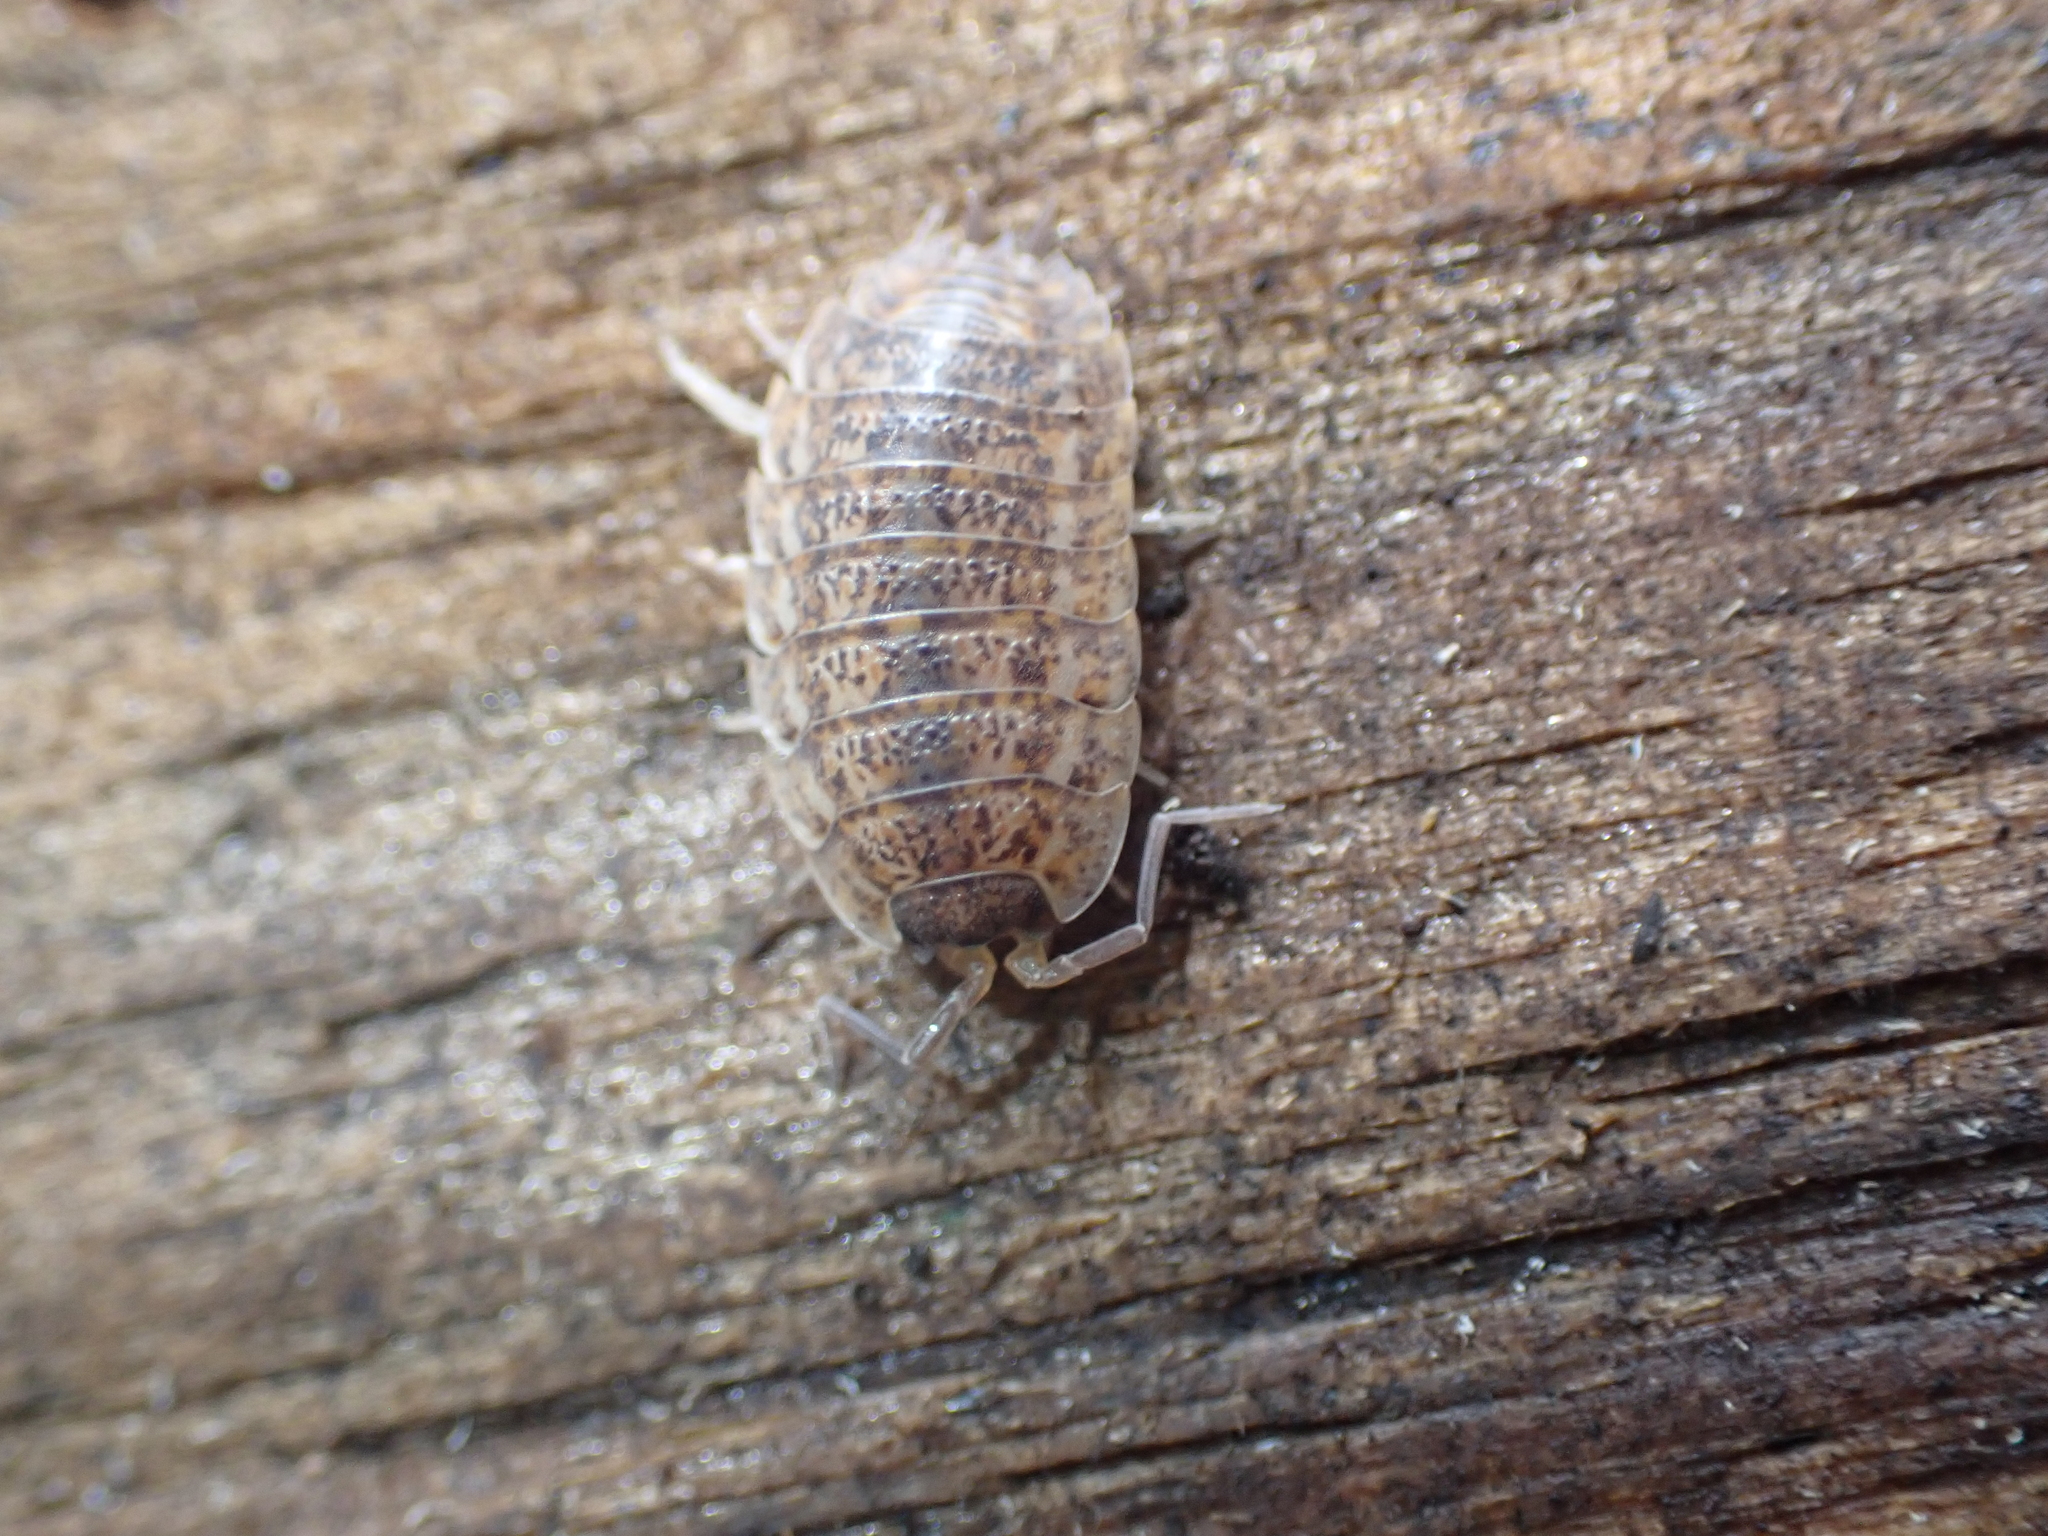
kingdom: Animalia
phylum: Arthropoda
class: Malacostraca
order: Isopoda
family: Trachelipodidae
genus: Trachelipus
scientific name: Trachelipus rathkii
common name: Isopod
